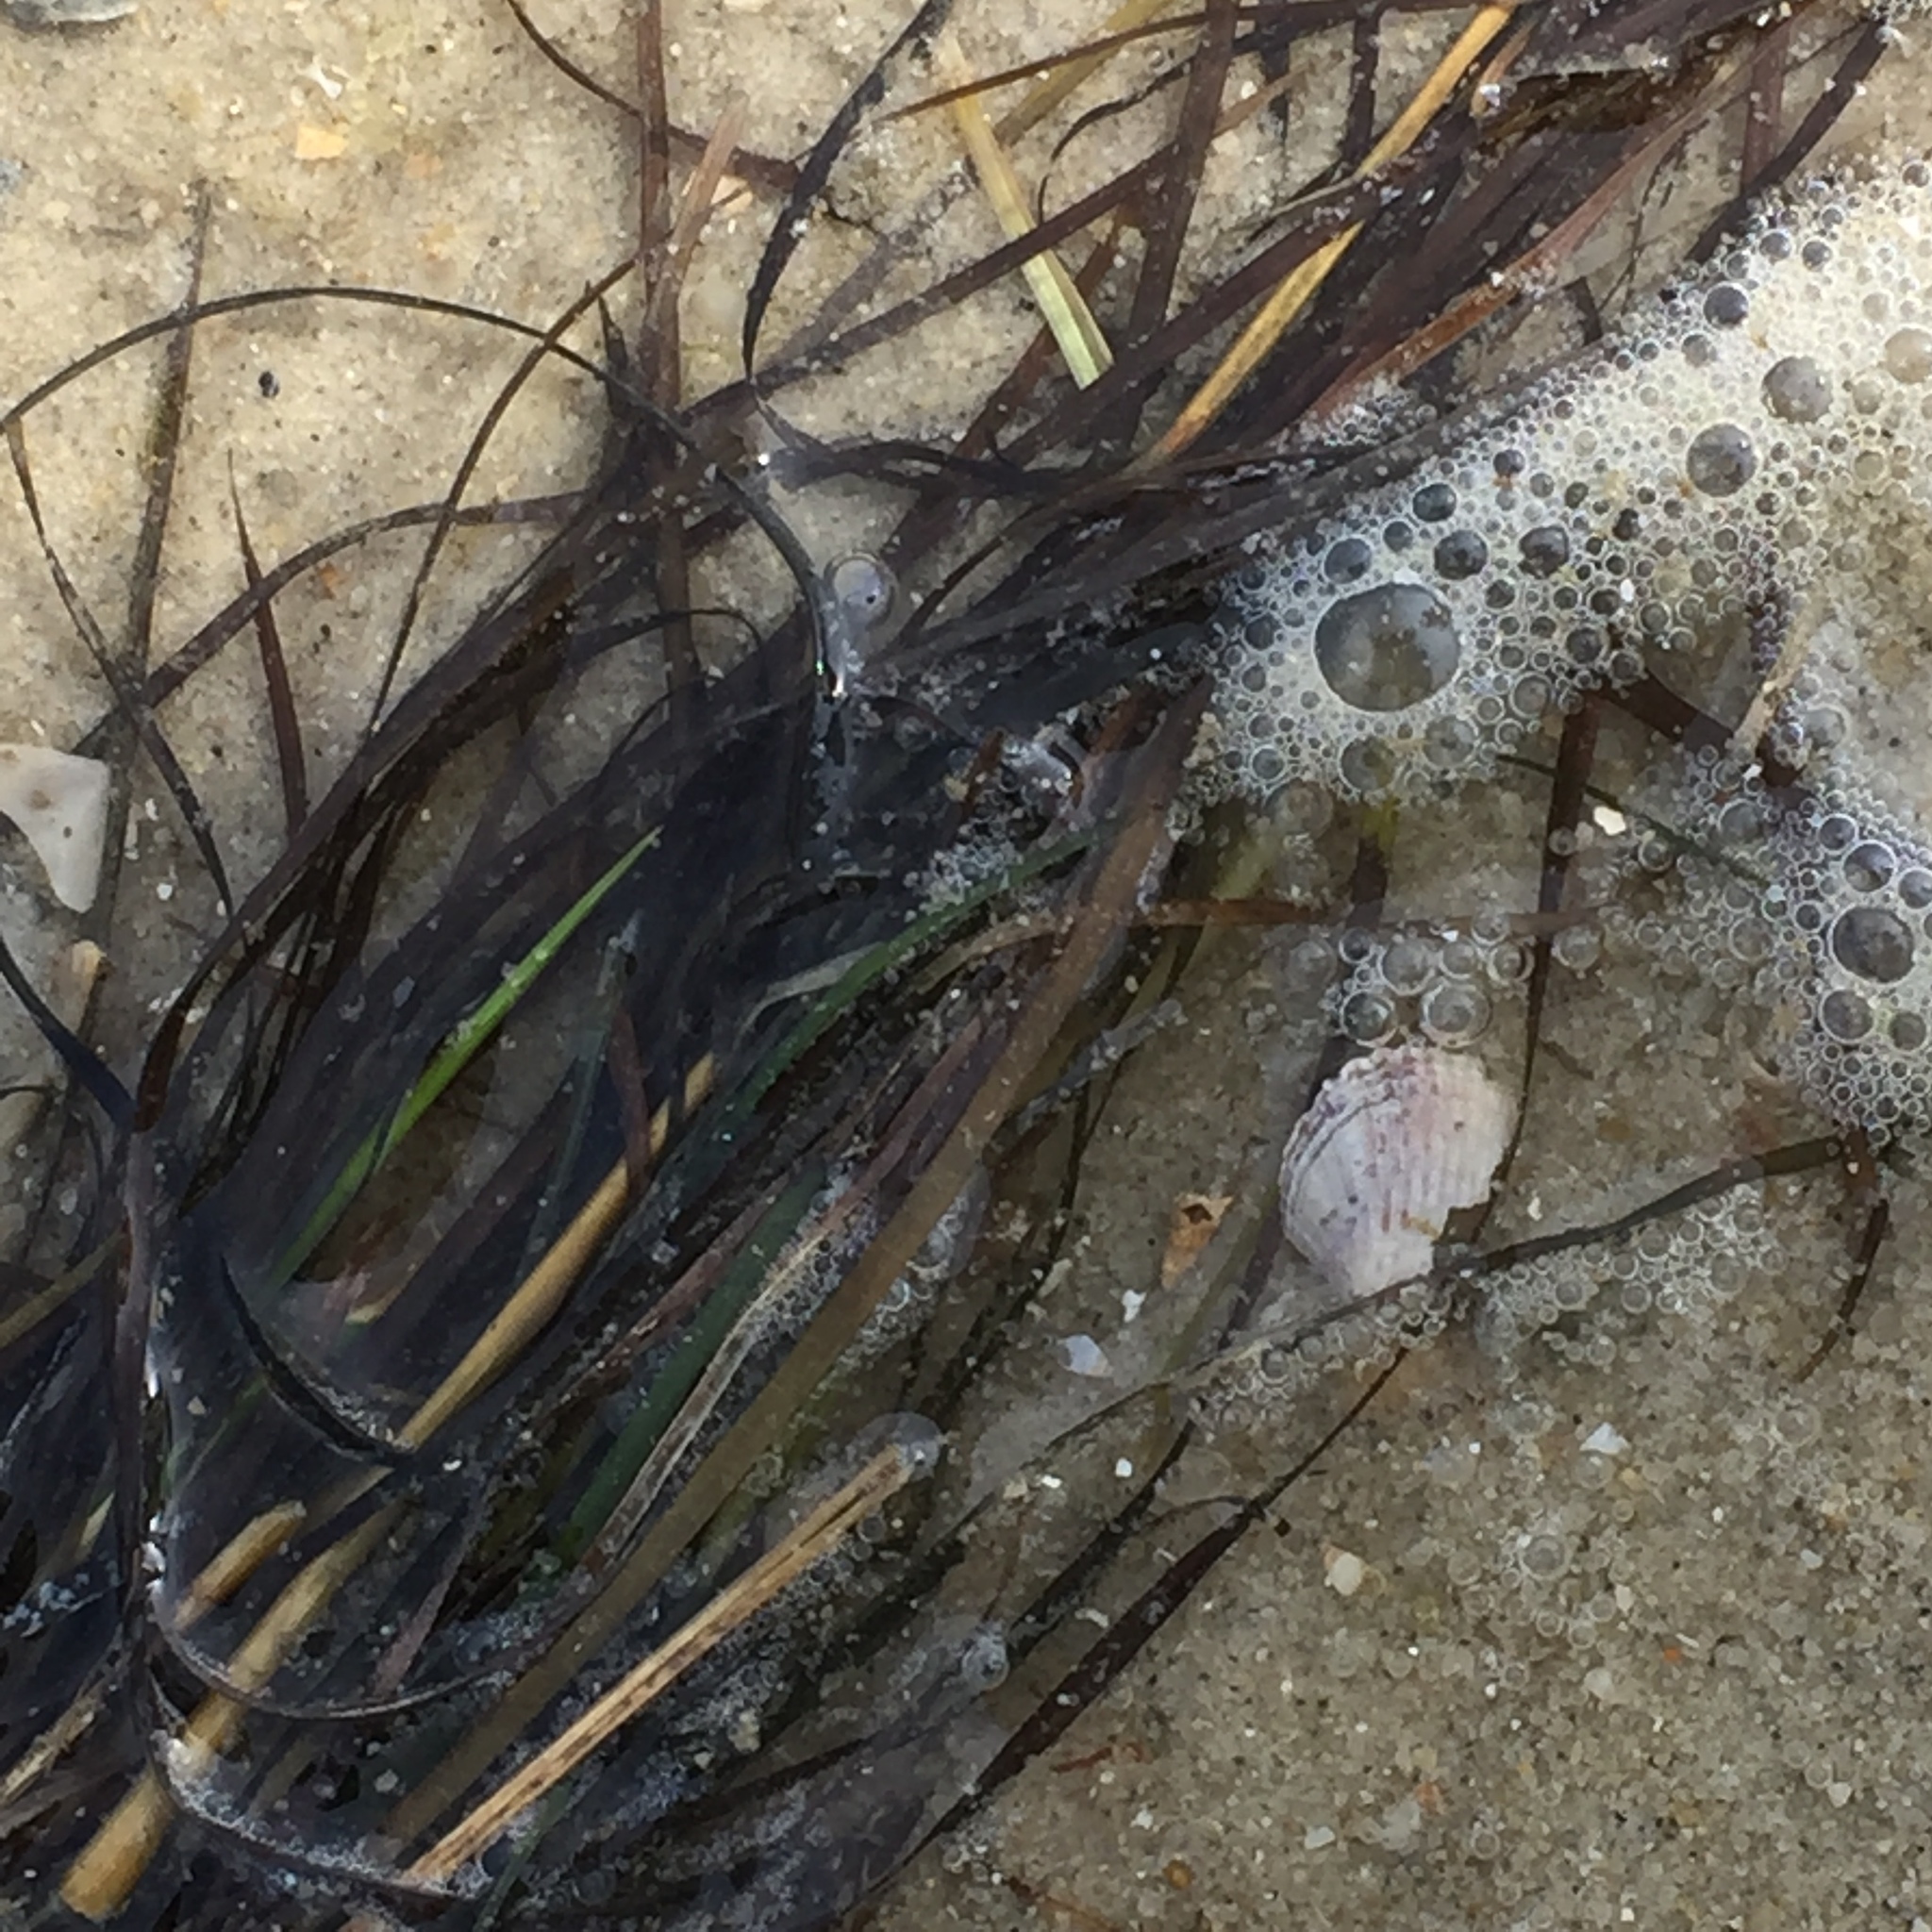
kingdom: Plantae
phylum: Tracheophyta
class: Liliopsida
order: Alismatales
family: Zosteraceae
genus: Zostera
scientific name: Zostera noltii
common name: Dwarf eelgrass
